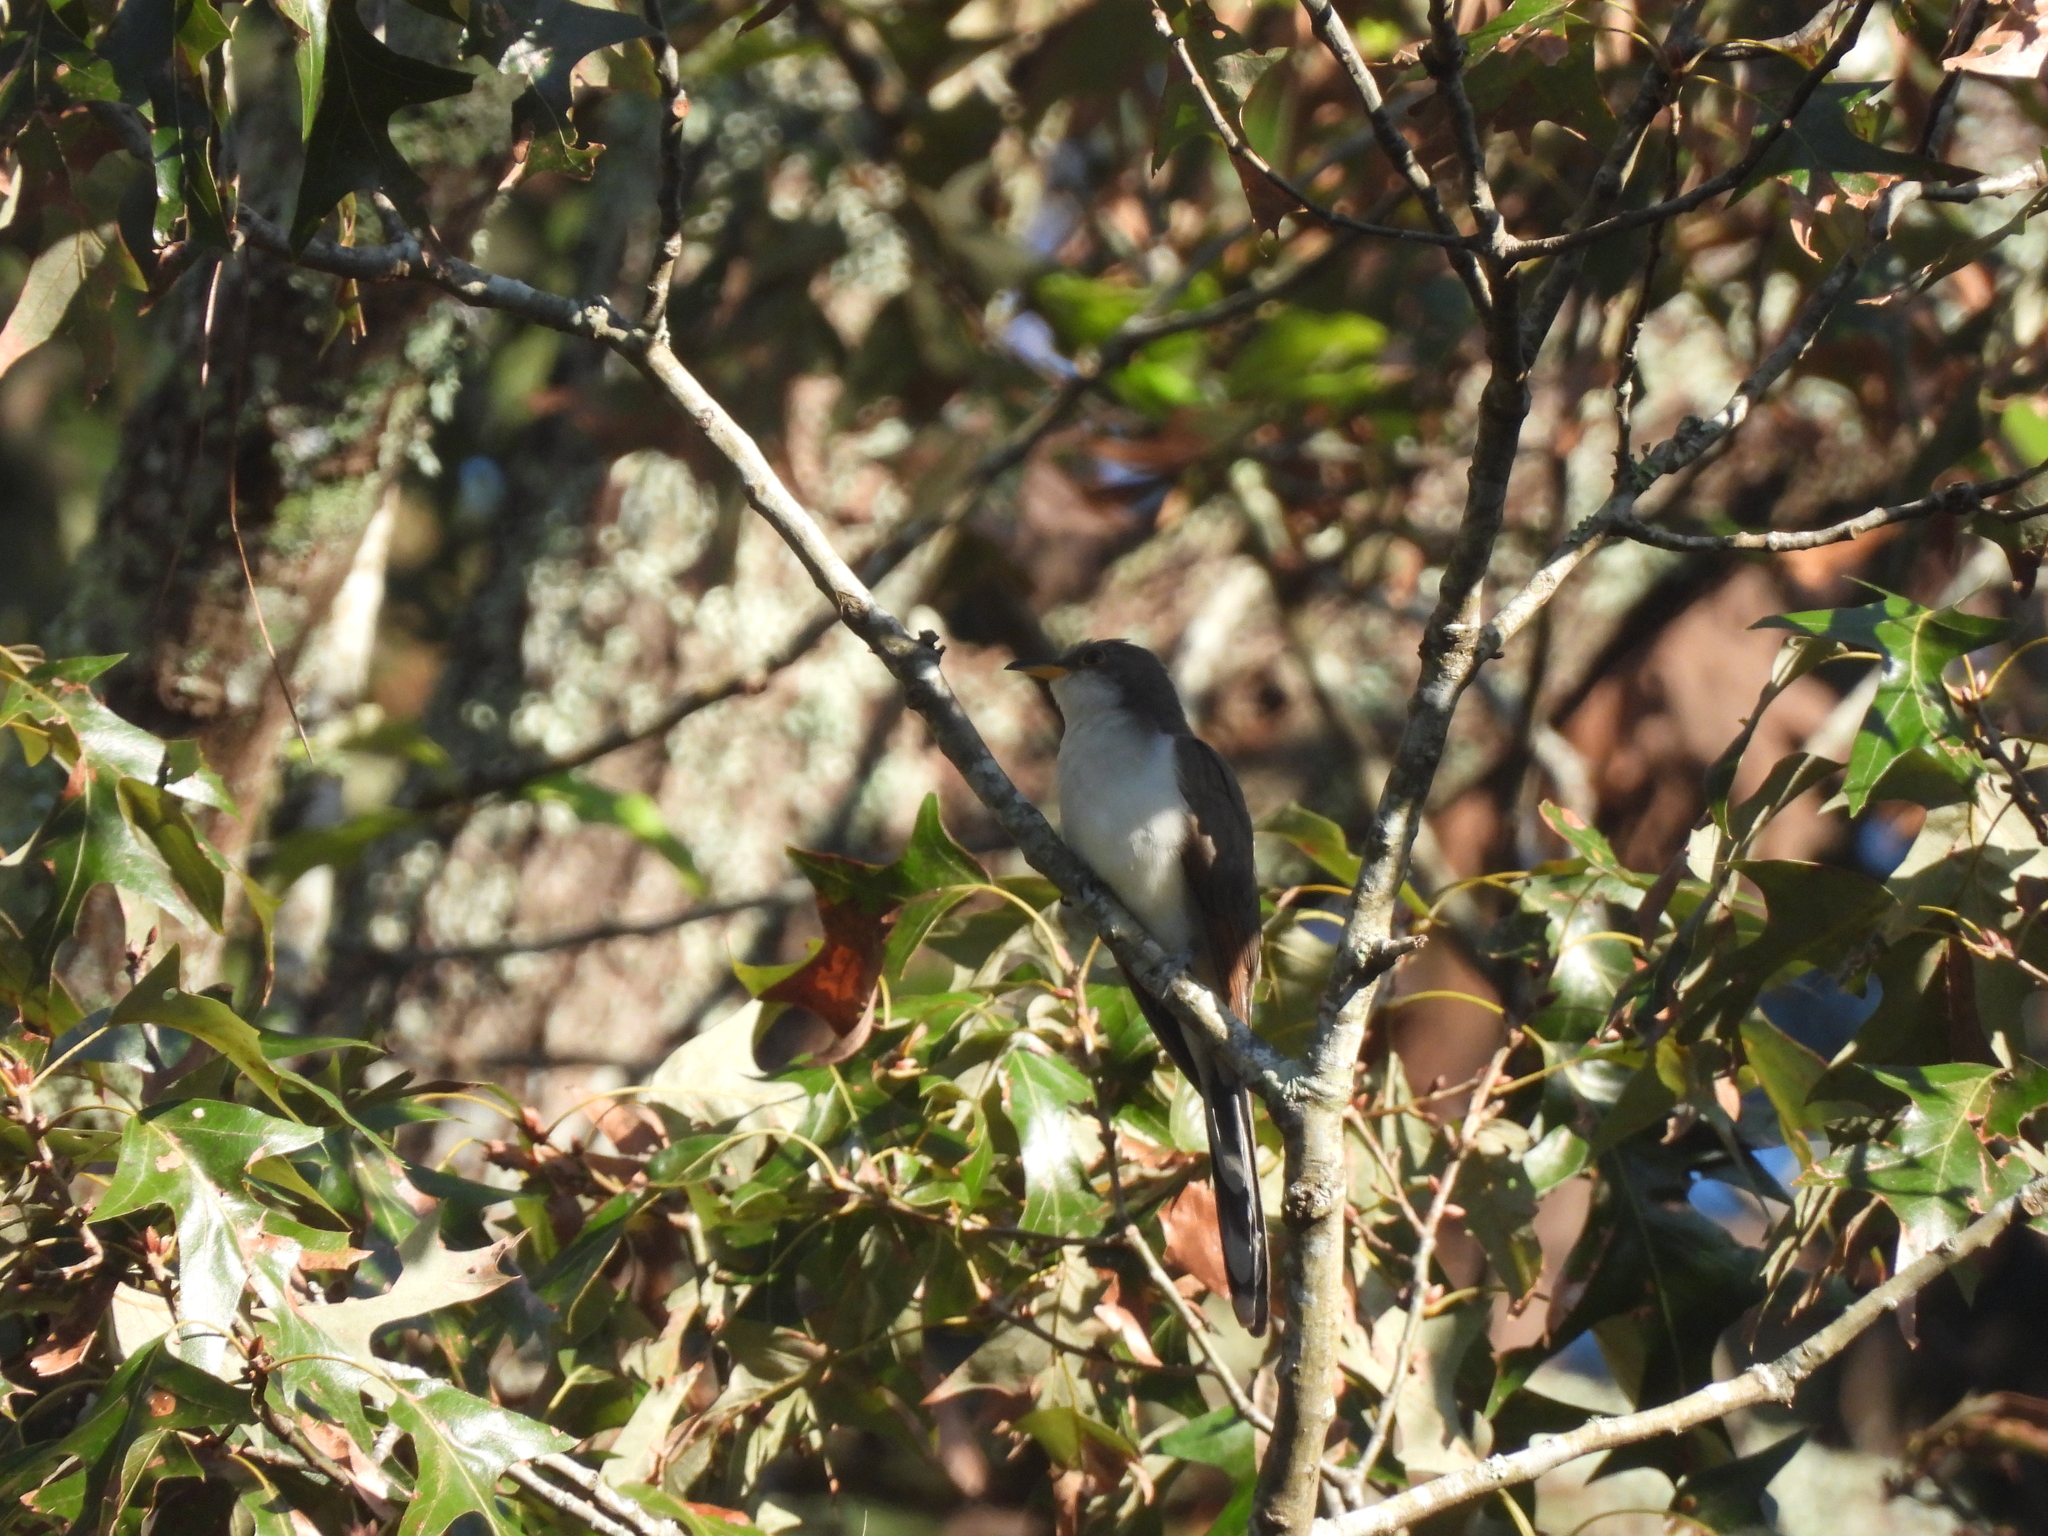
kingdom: Animalia
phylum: Chordata
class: Aves
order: Cuculiformes
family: Cuculidae
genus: Coccyzus
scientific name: Coccyzus americanus
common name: Yellow-billed cuckoo
